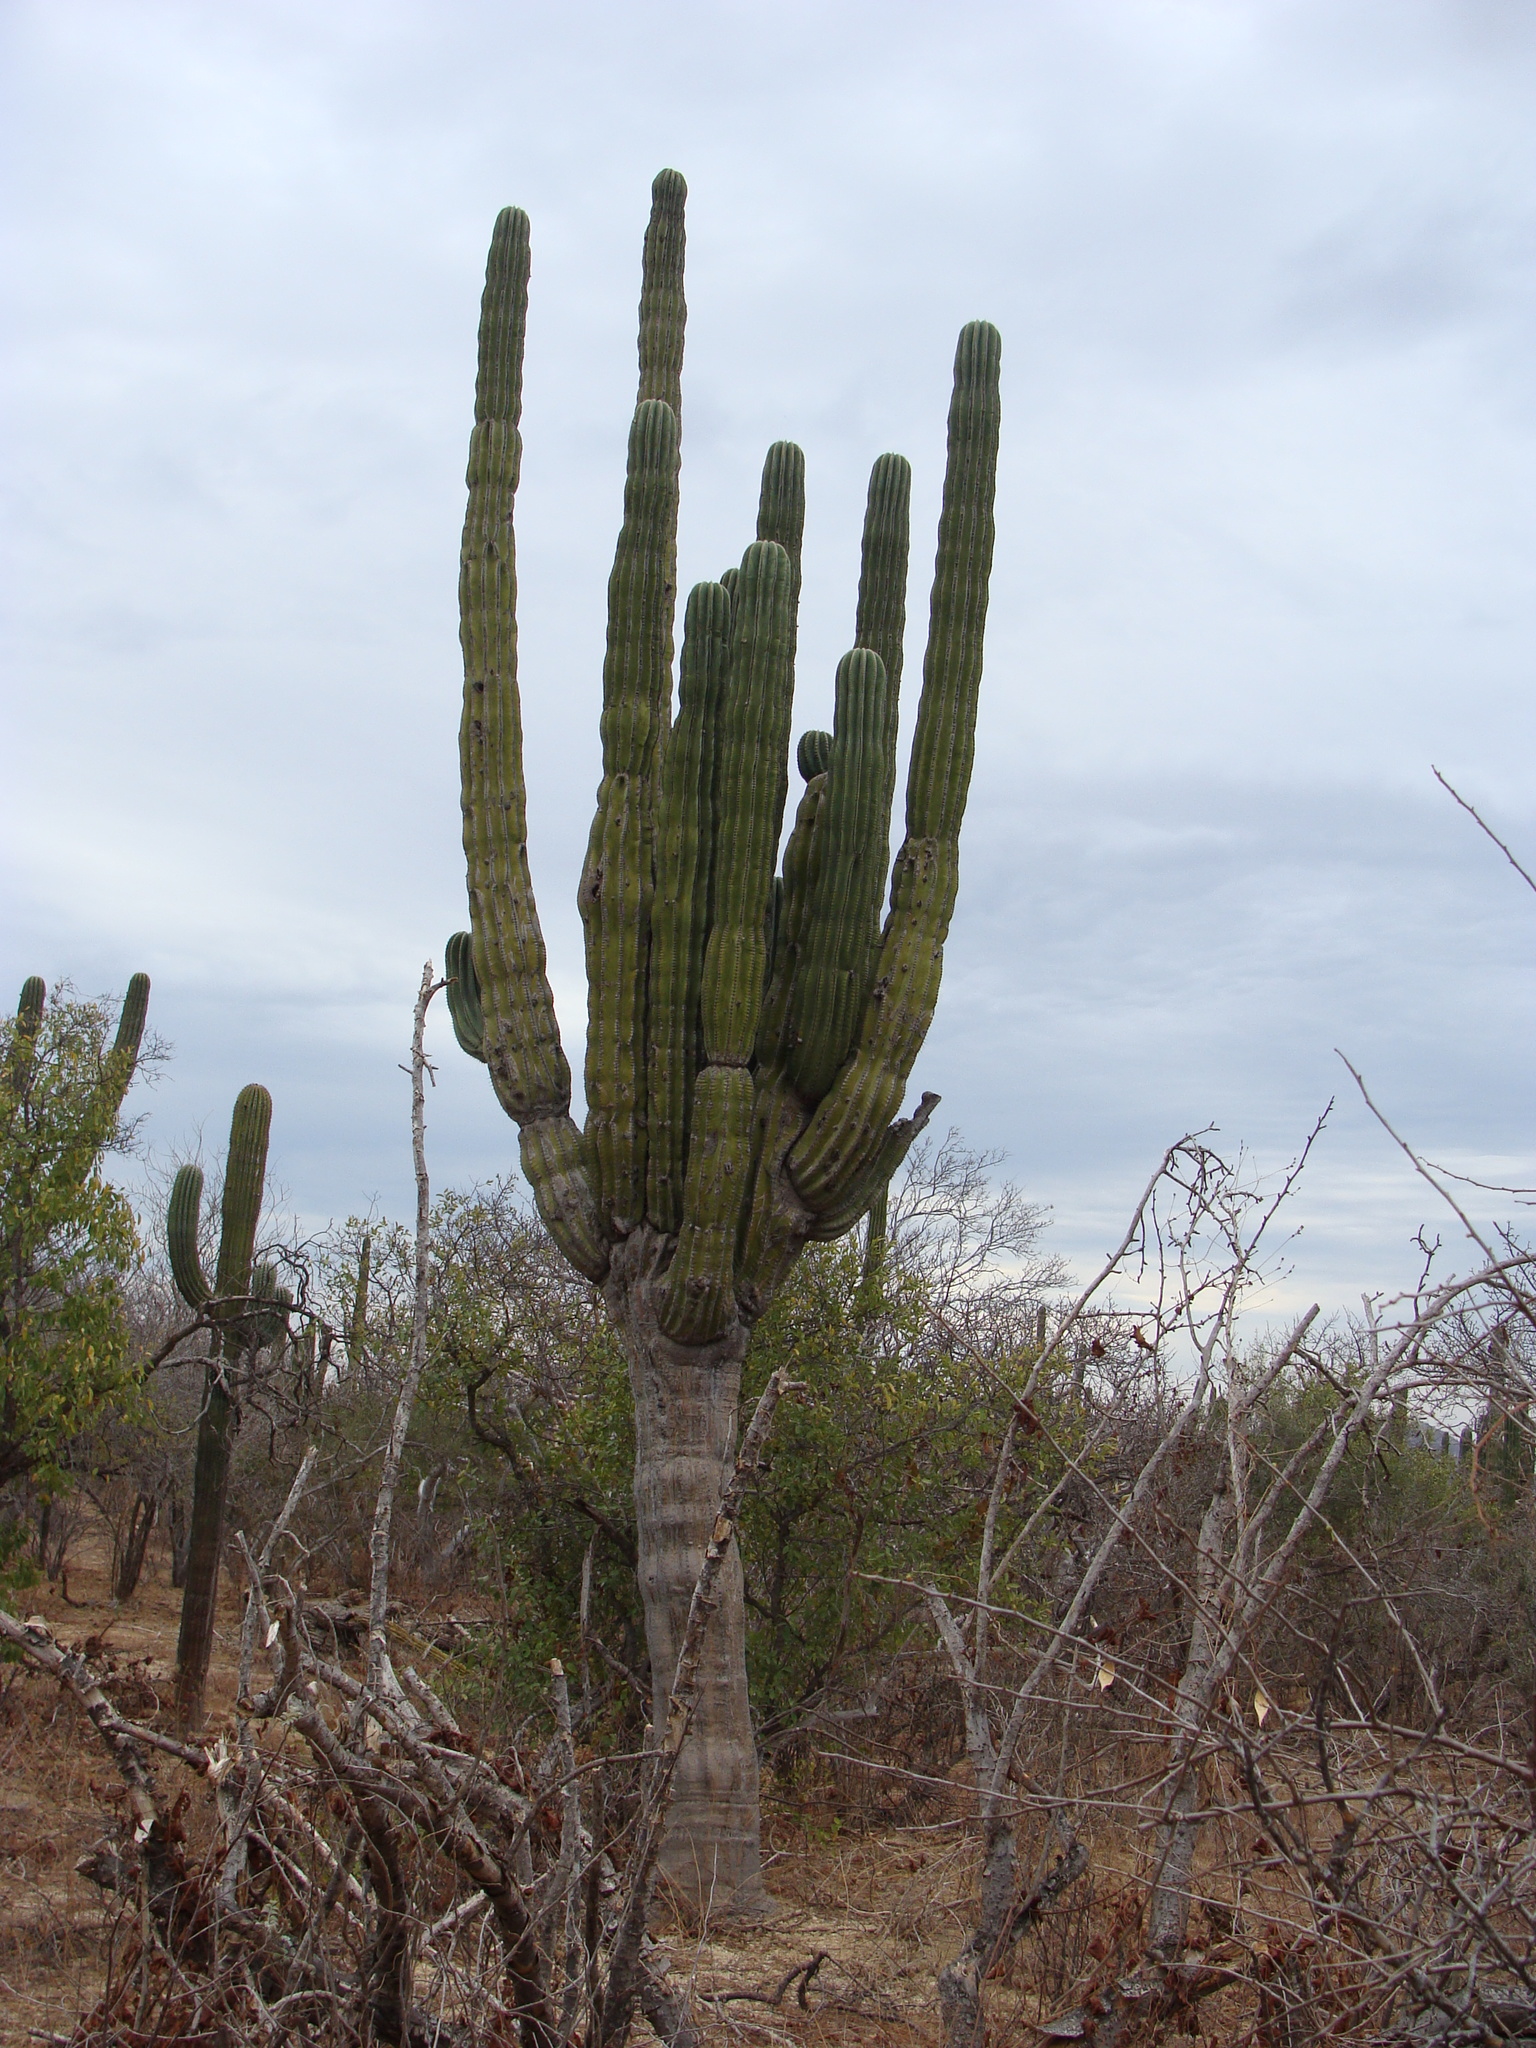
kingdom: Plantae
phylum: Tracheophyta
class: Magnoliopsida
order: Caryophyllales
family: Cactaceae
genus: Pachycereus
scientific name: Pachycereus pringlei
